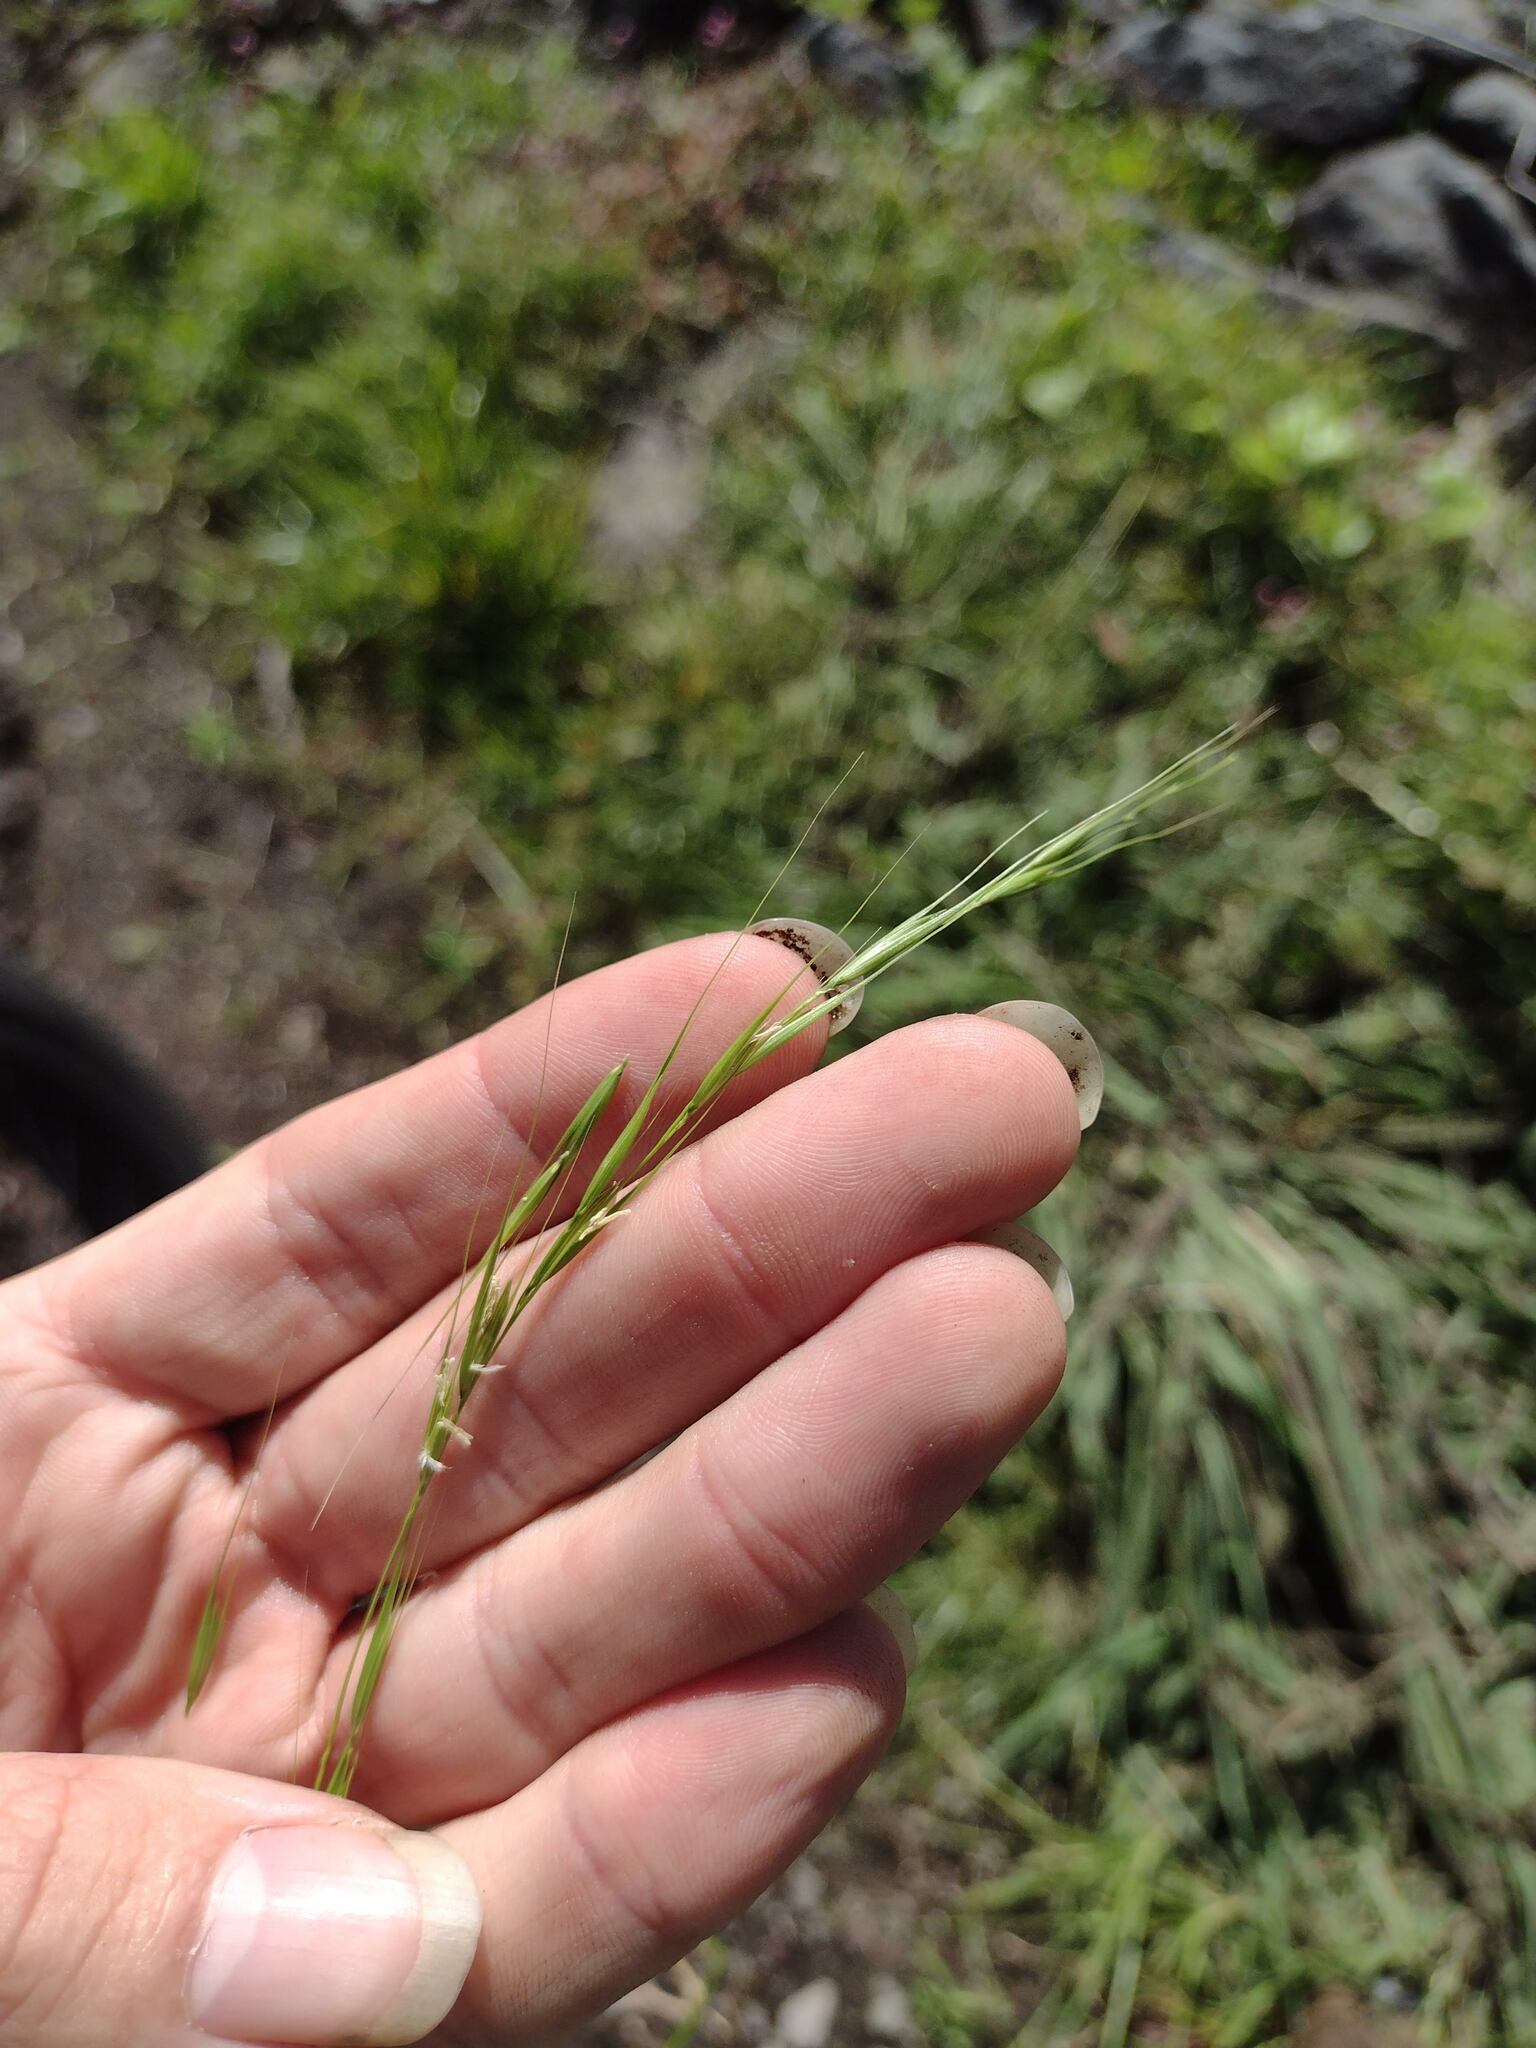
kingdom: Plantae
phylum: Tracheophyta
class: Liliopsida
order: Poales
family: Poaceae
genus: Microlaena
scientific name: Microlaena stipoides
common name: Meadow ricegrass
